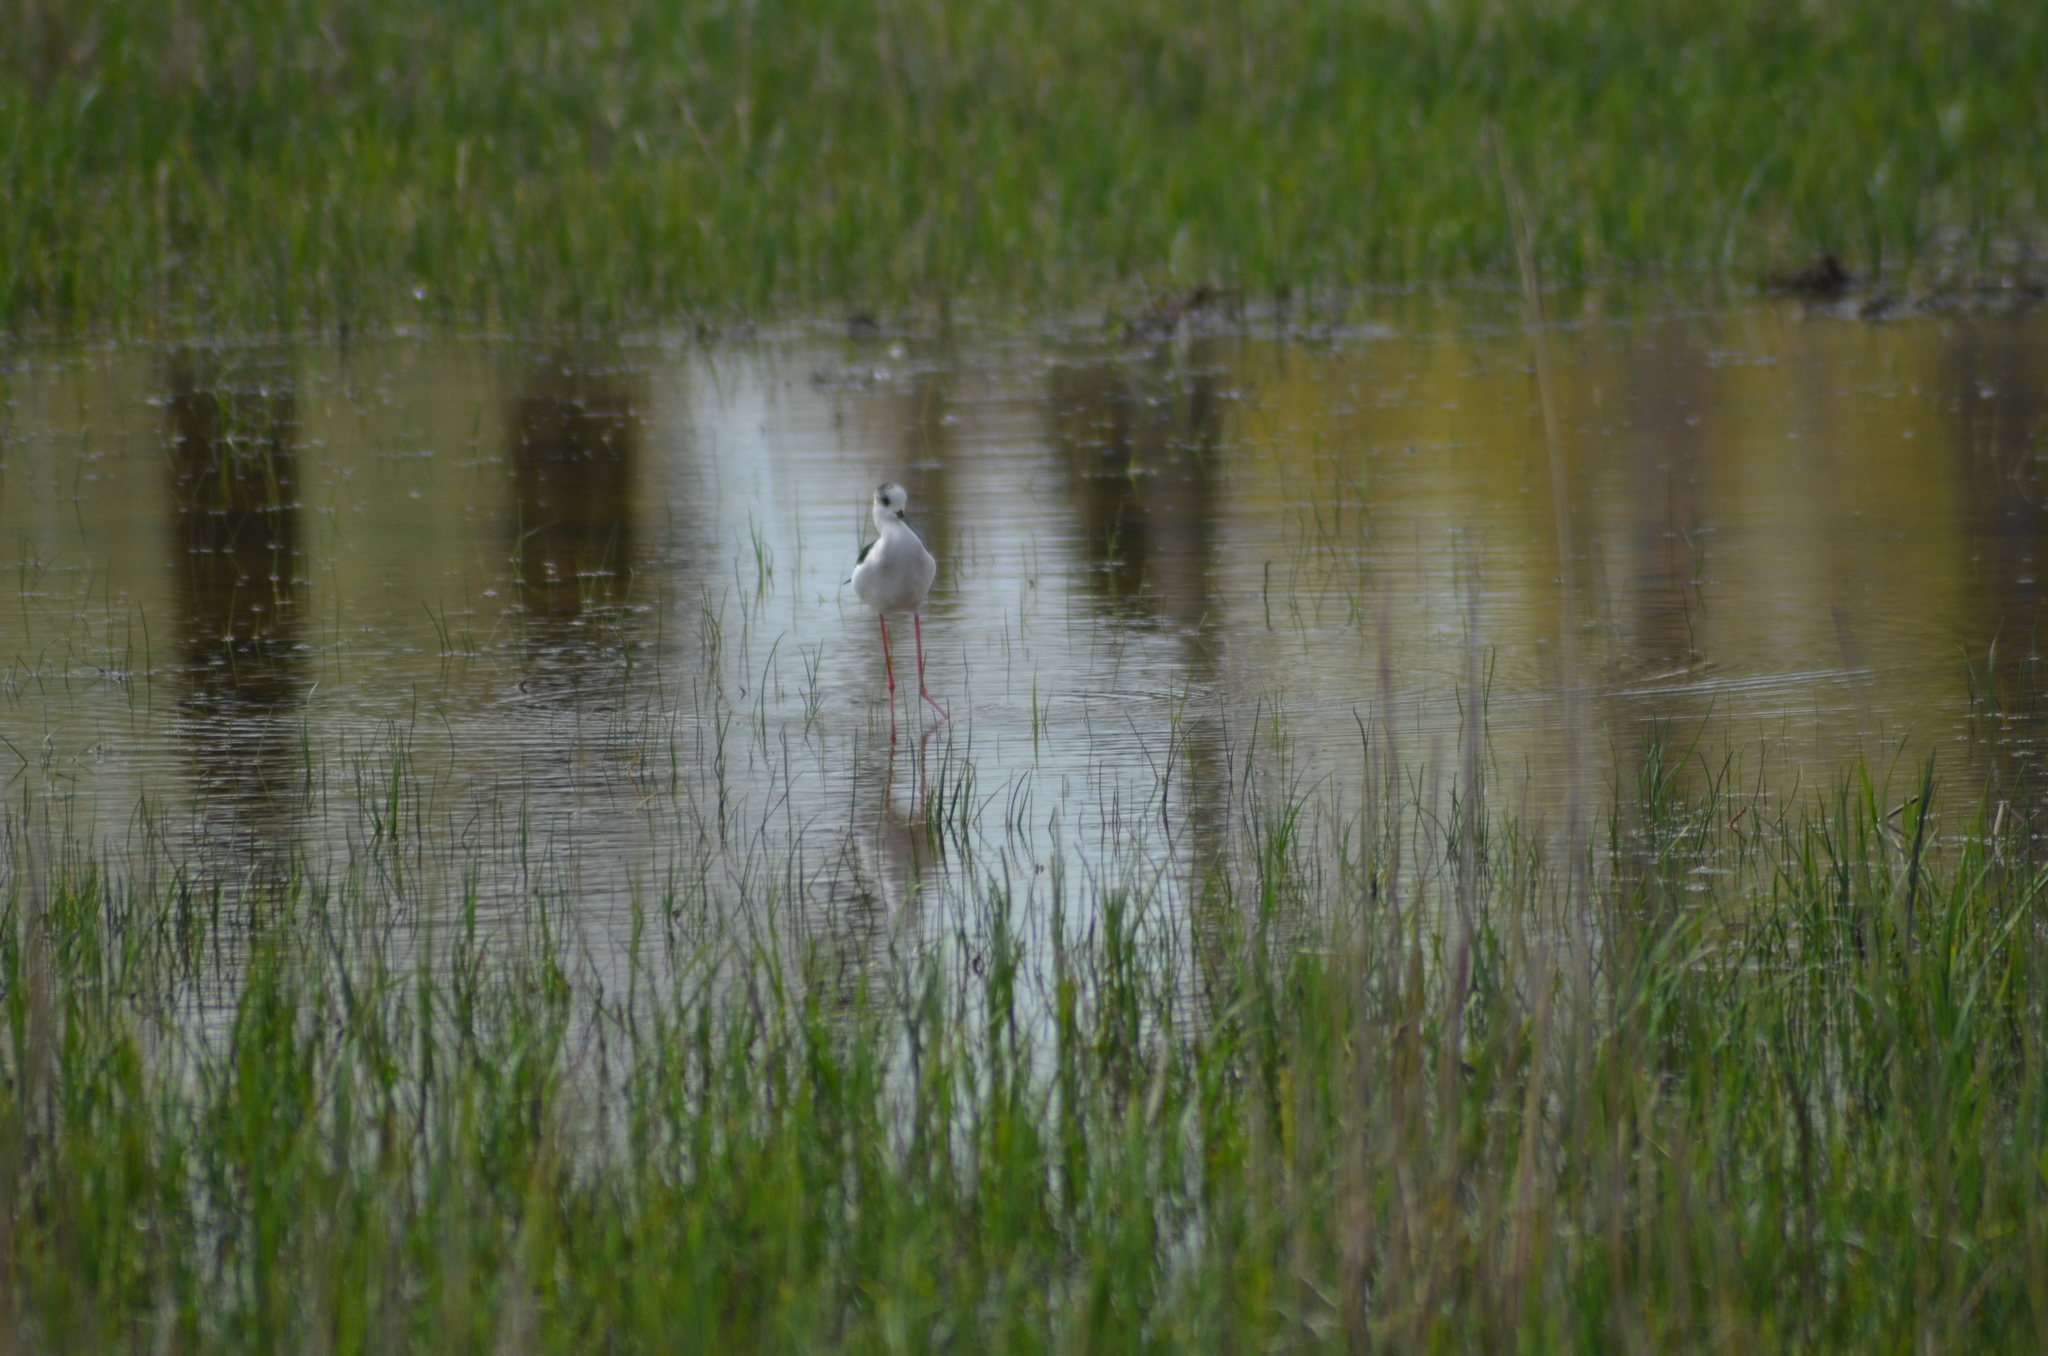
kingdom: Animalia
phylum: Chordata
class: Aves
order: Charadriiformes
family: Recurvirostridae
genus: Himantopus
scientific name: Himantopus himantopus
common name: Black-winged stilt
